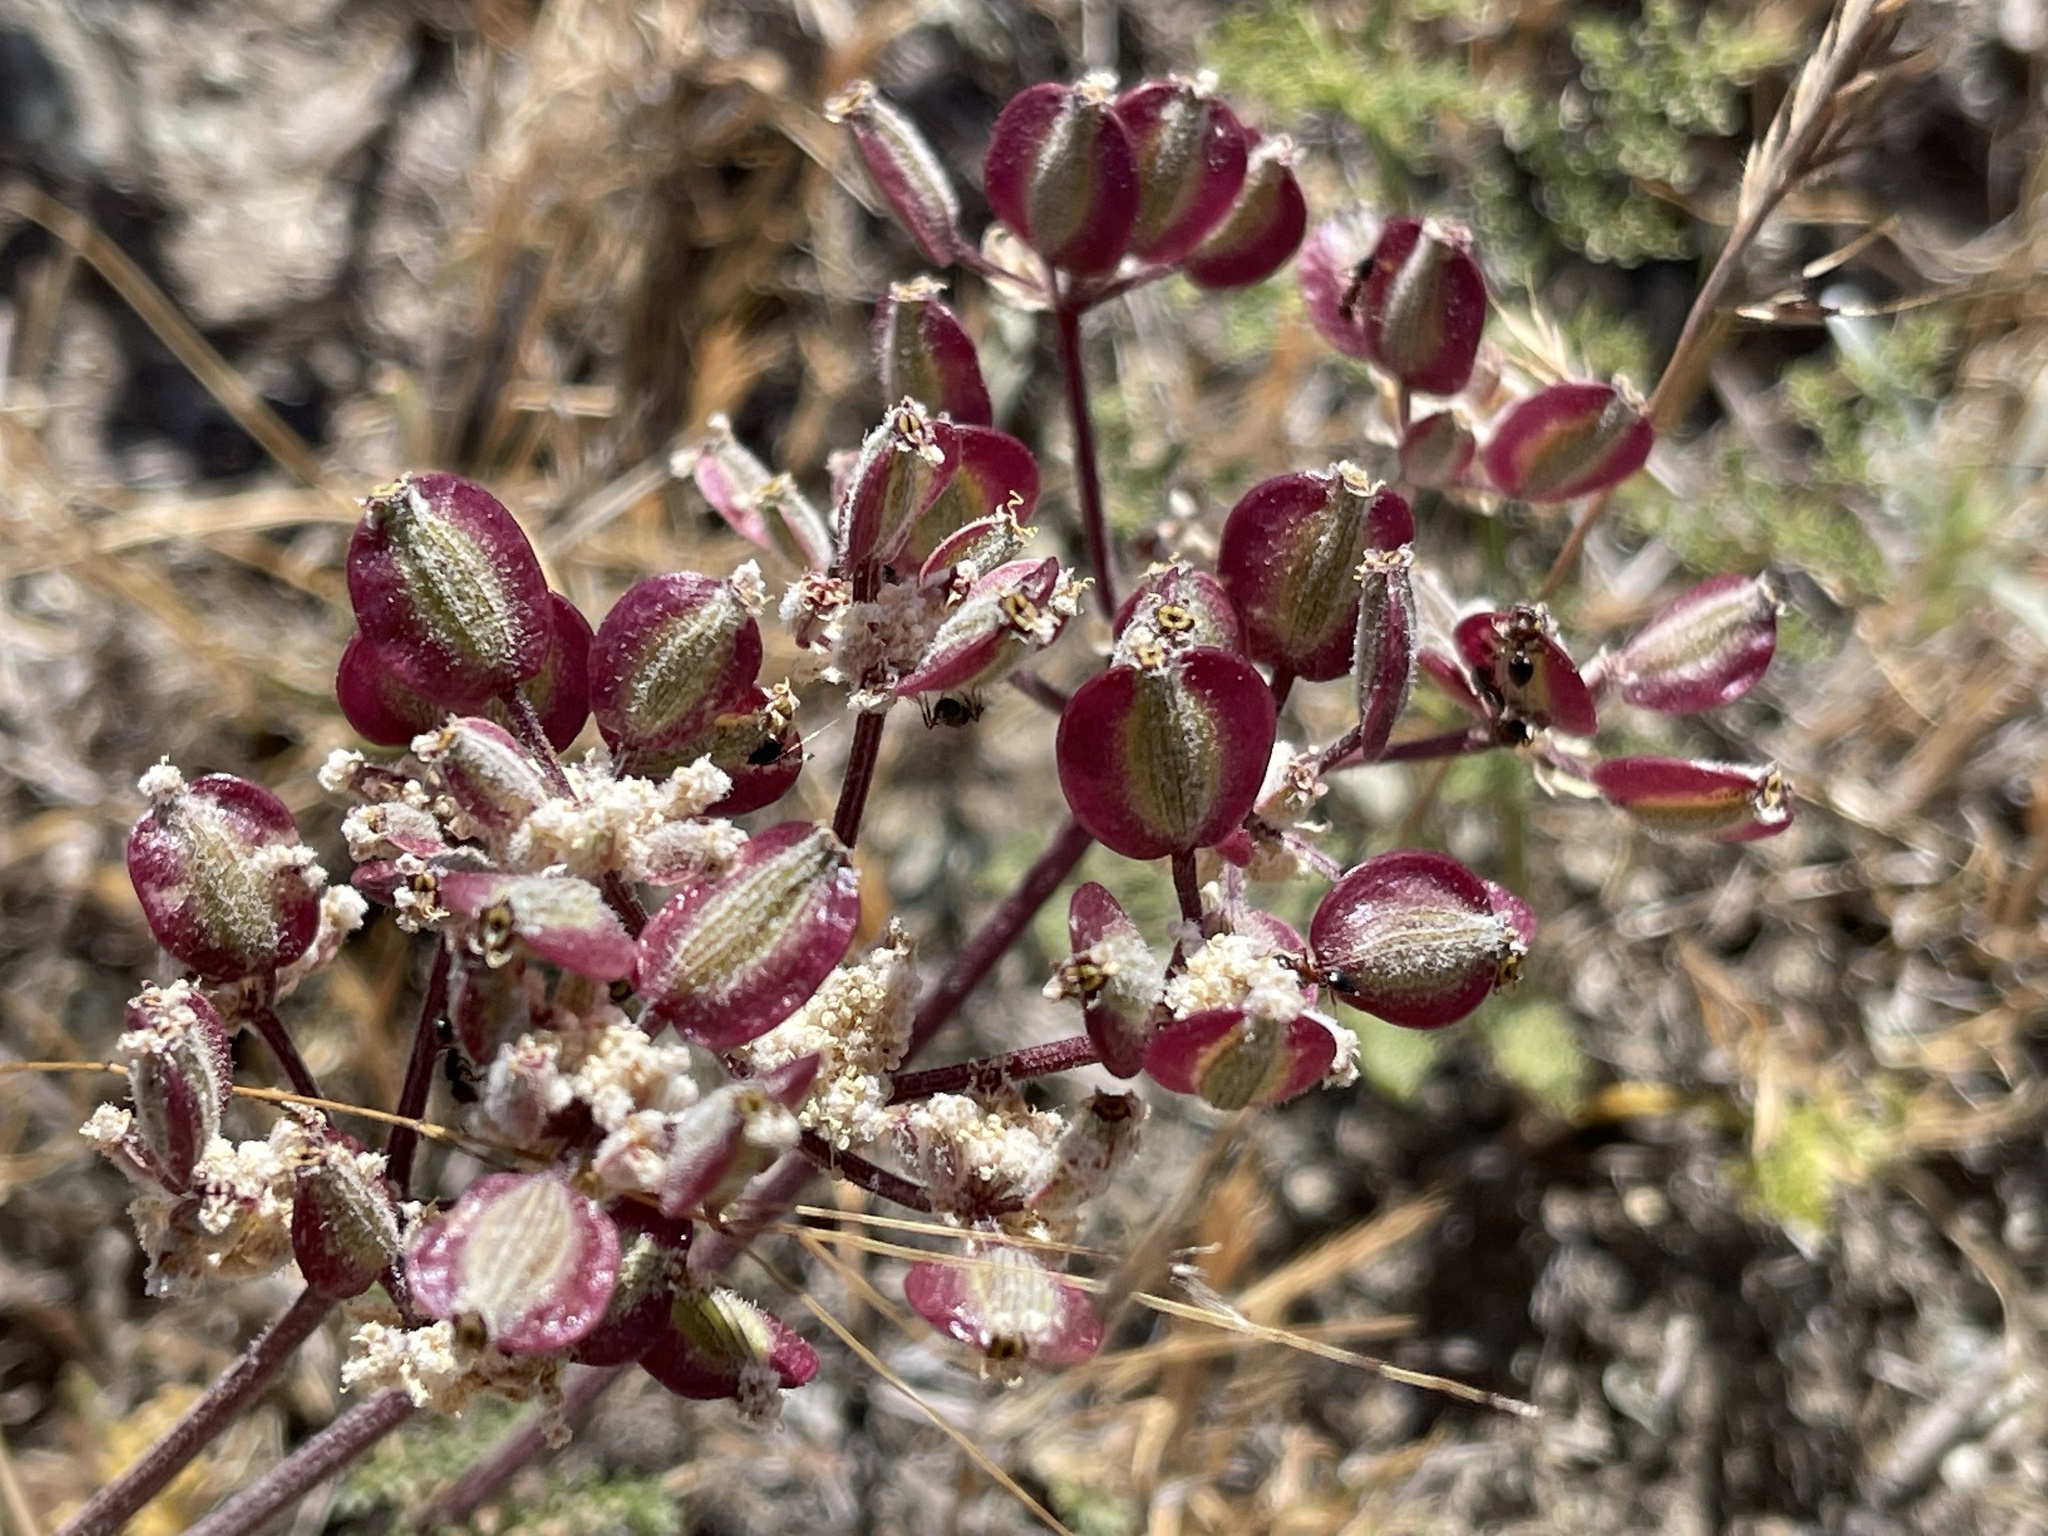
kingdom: Plantae
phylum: Tracheophyta
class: Magnoliopsida
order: Apiales
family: Apiaceae
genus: Lomatium
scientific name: Lomatium dasycarpum
